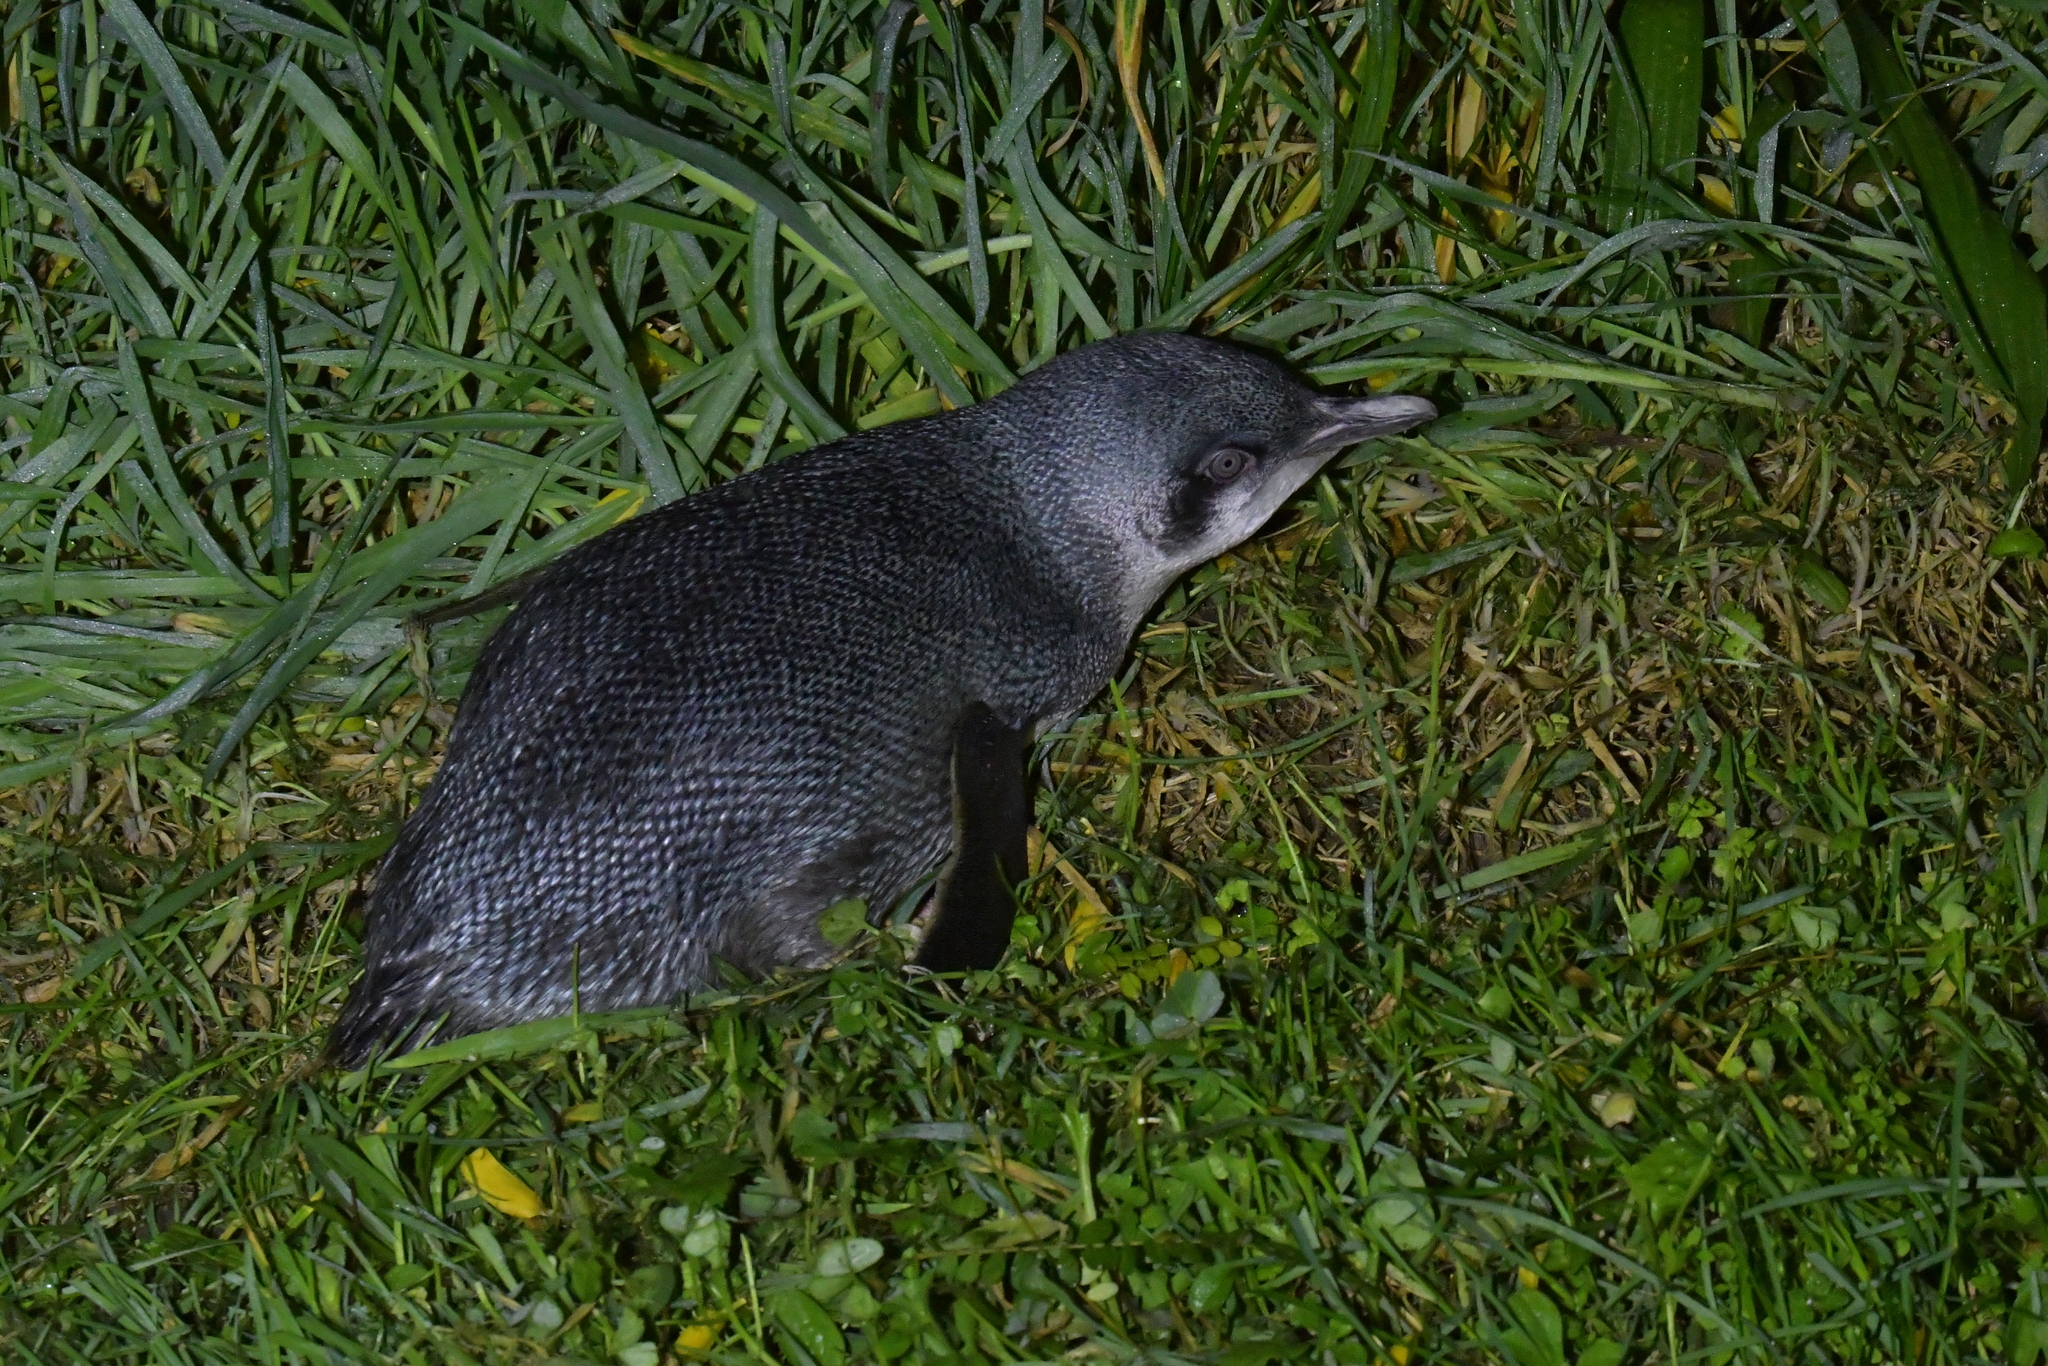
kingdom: Animalia
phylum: Chordata
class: Aves
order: Sphenisciformes
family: Spheniscidae
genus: Eudyptula
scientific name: Eudyptula minor
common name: Little penguin
